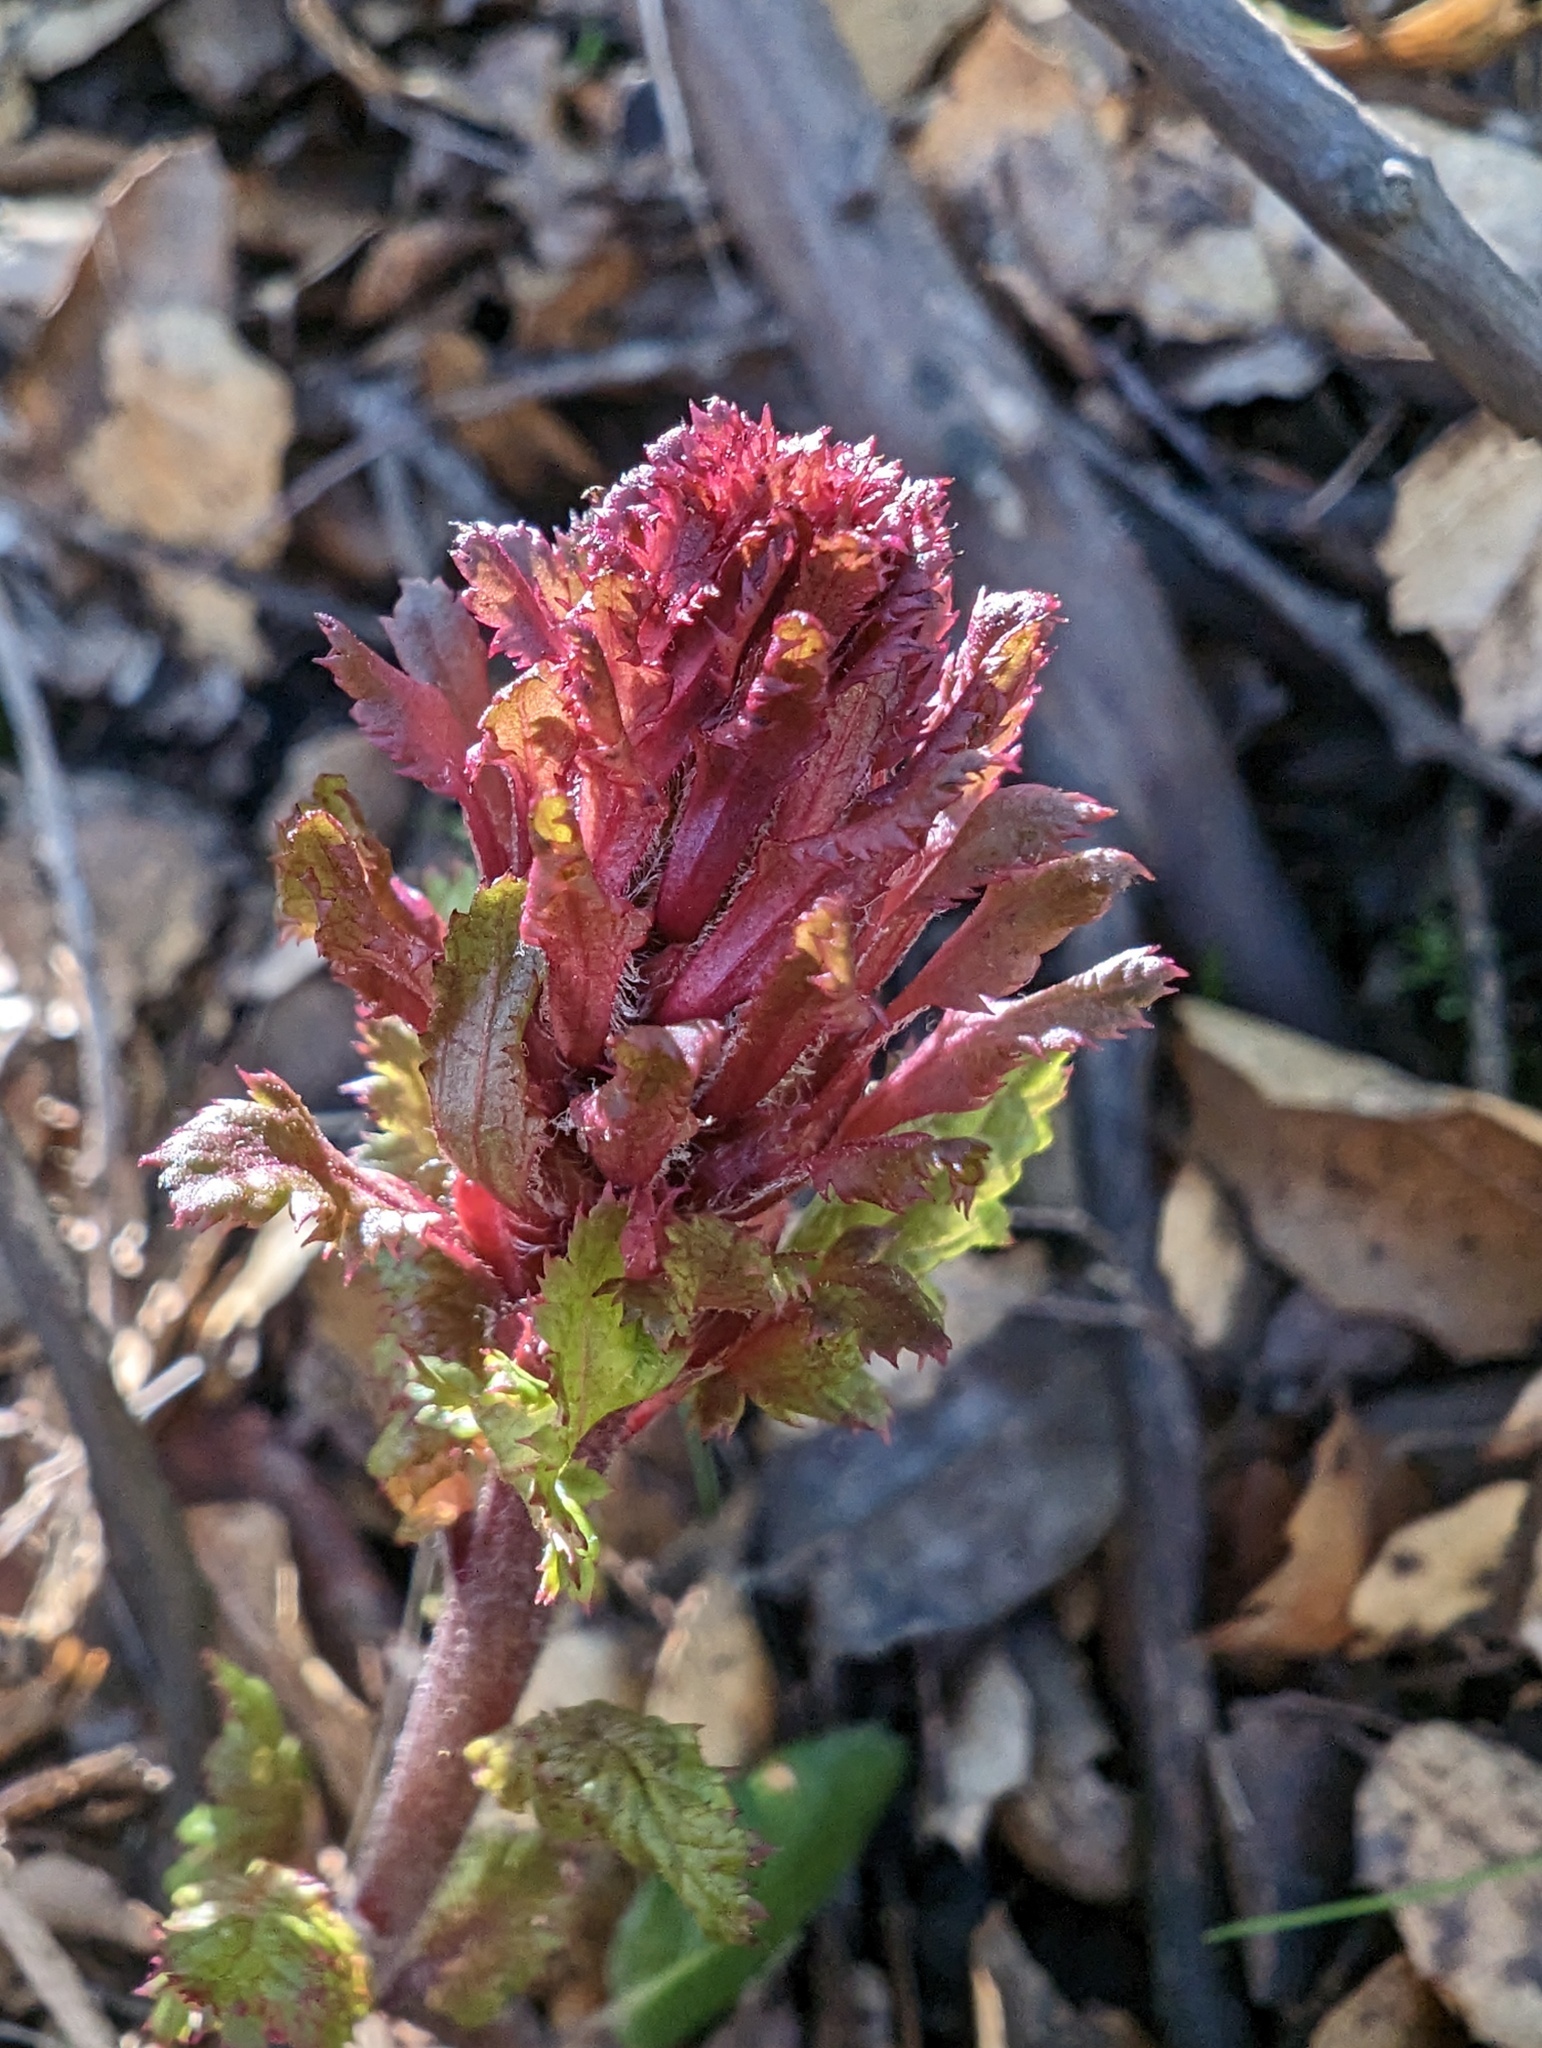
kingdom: Plantae
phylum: Tracheophyta
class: Magnoliopsida
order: Lamiales
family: Orobanchaceae
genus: Pedicularis
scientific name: Pedicularis densiflora
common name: Indian warrior
